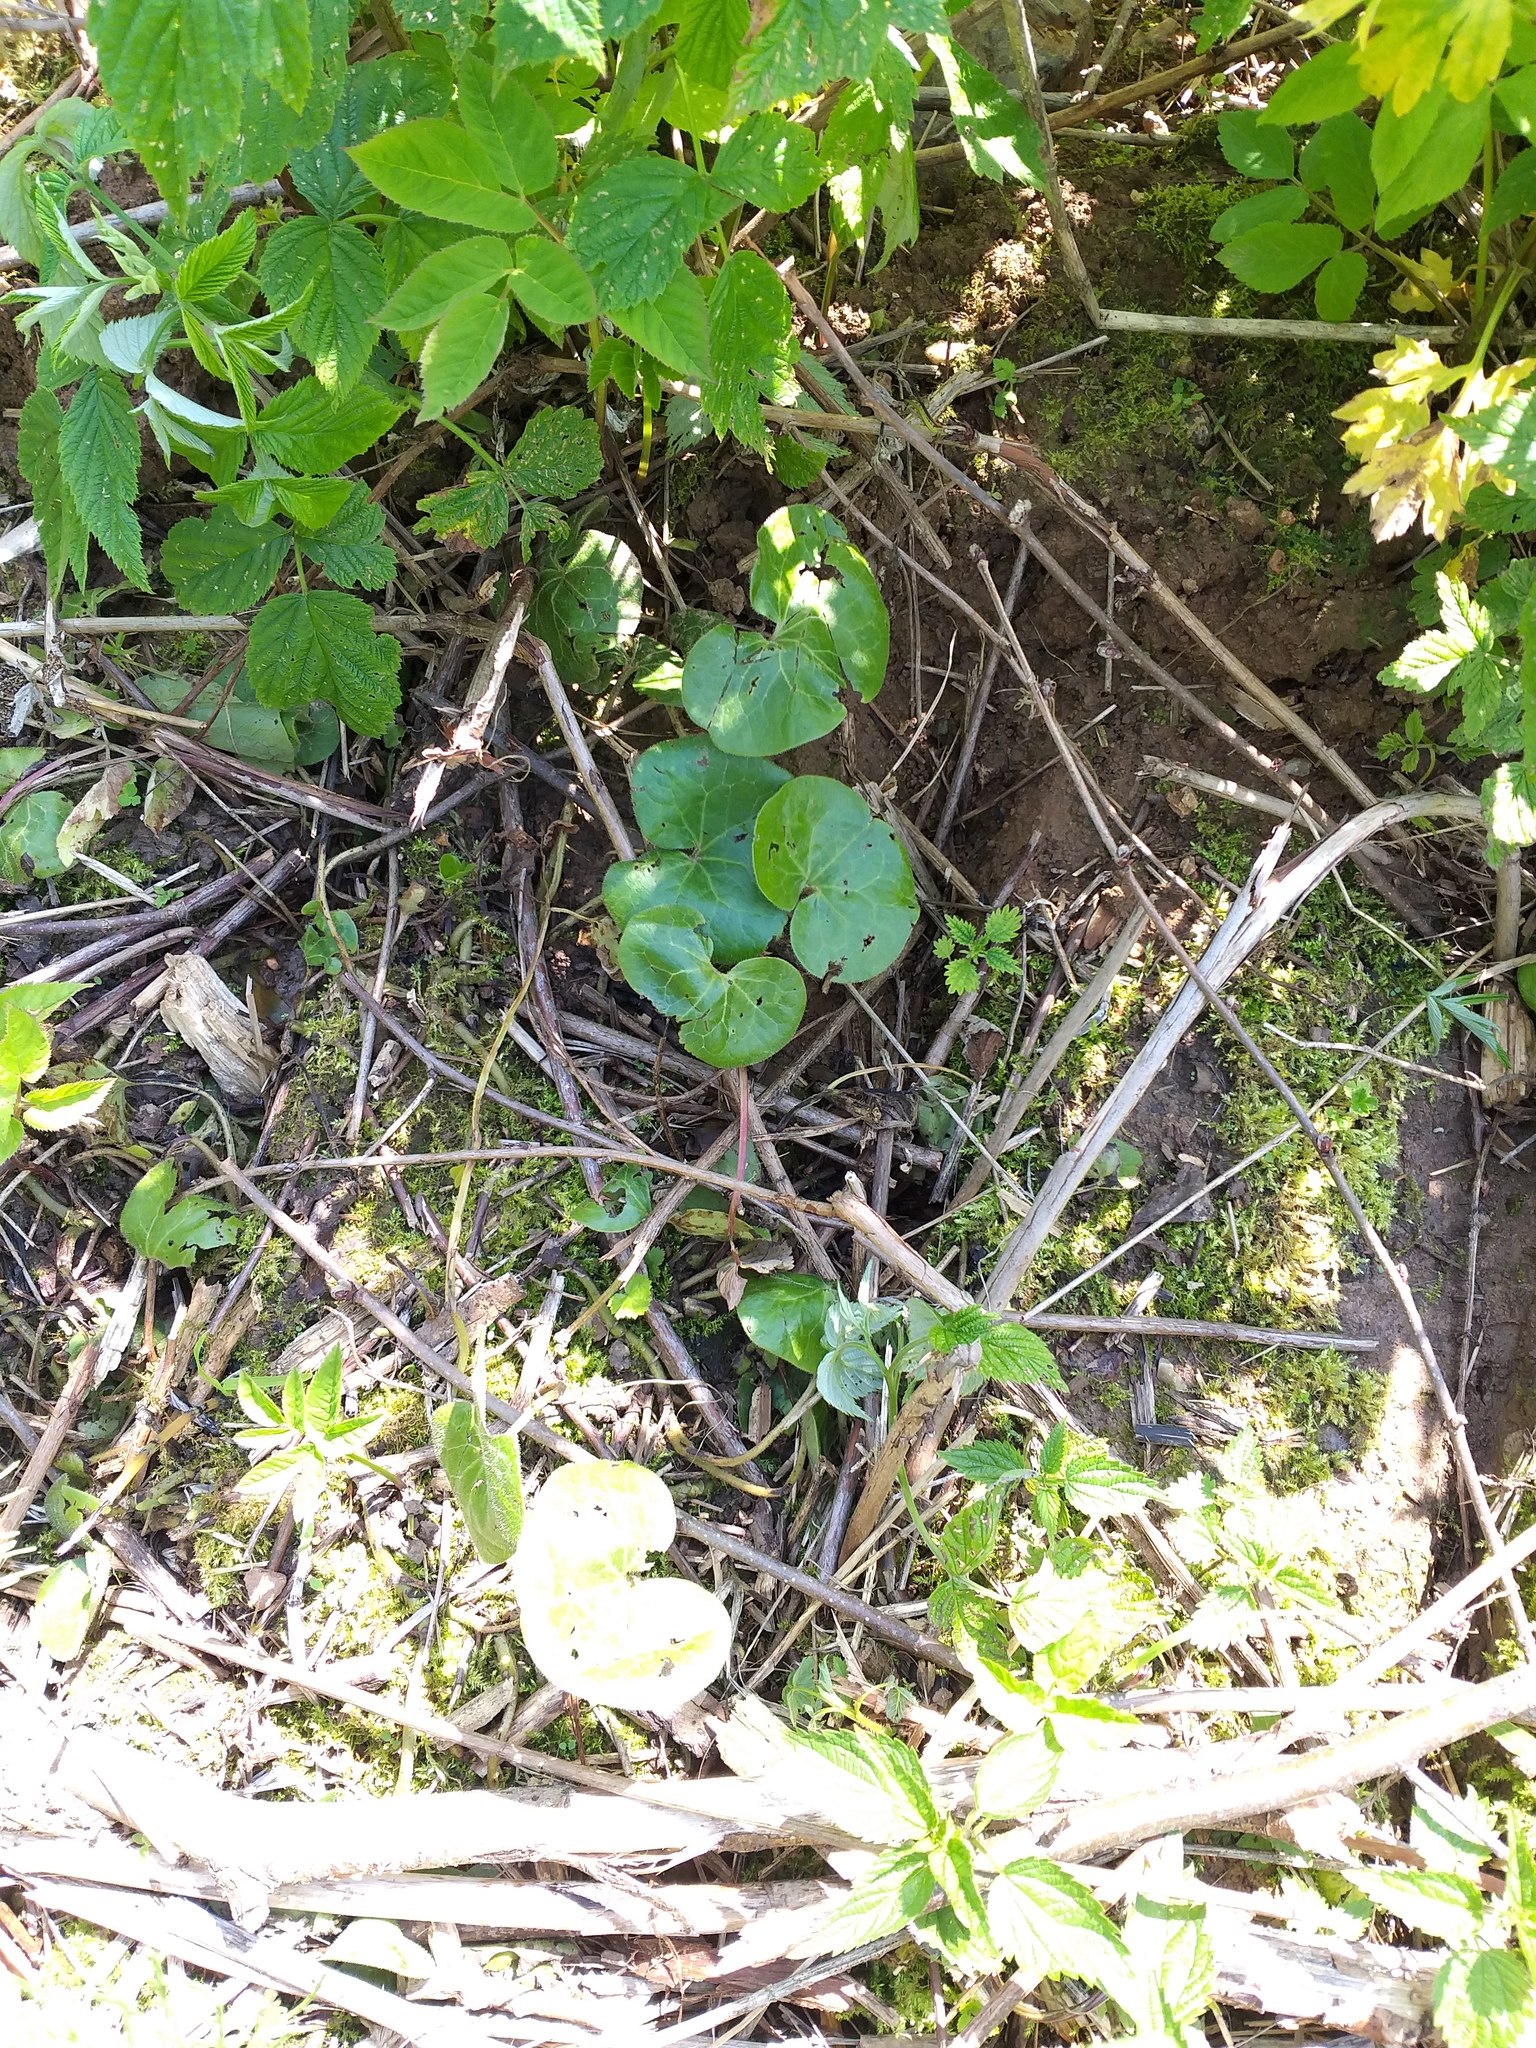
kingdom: Plantae
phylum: Tracheophyta
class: Magnoliopsida
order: Piperales
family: Aristolochiaceae
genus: Asarum
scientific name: Asarum europaeum
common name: Asarabacca
